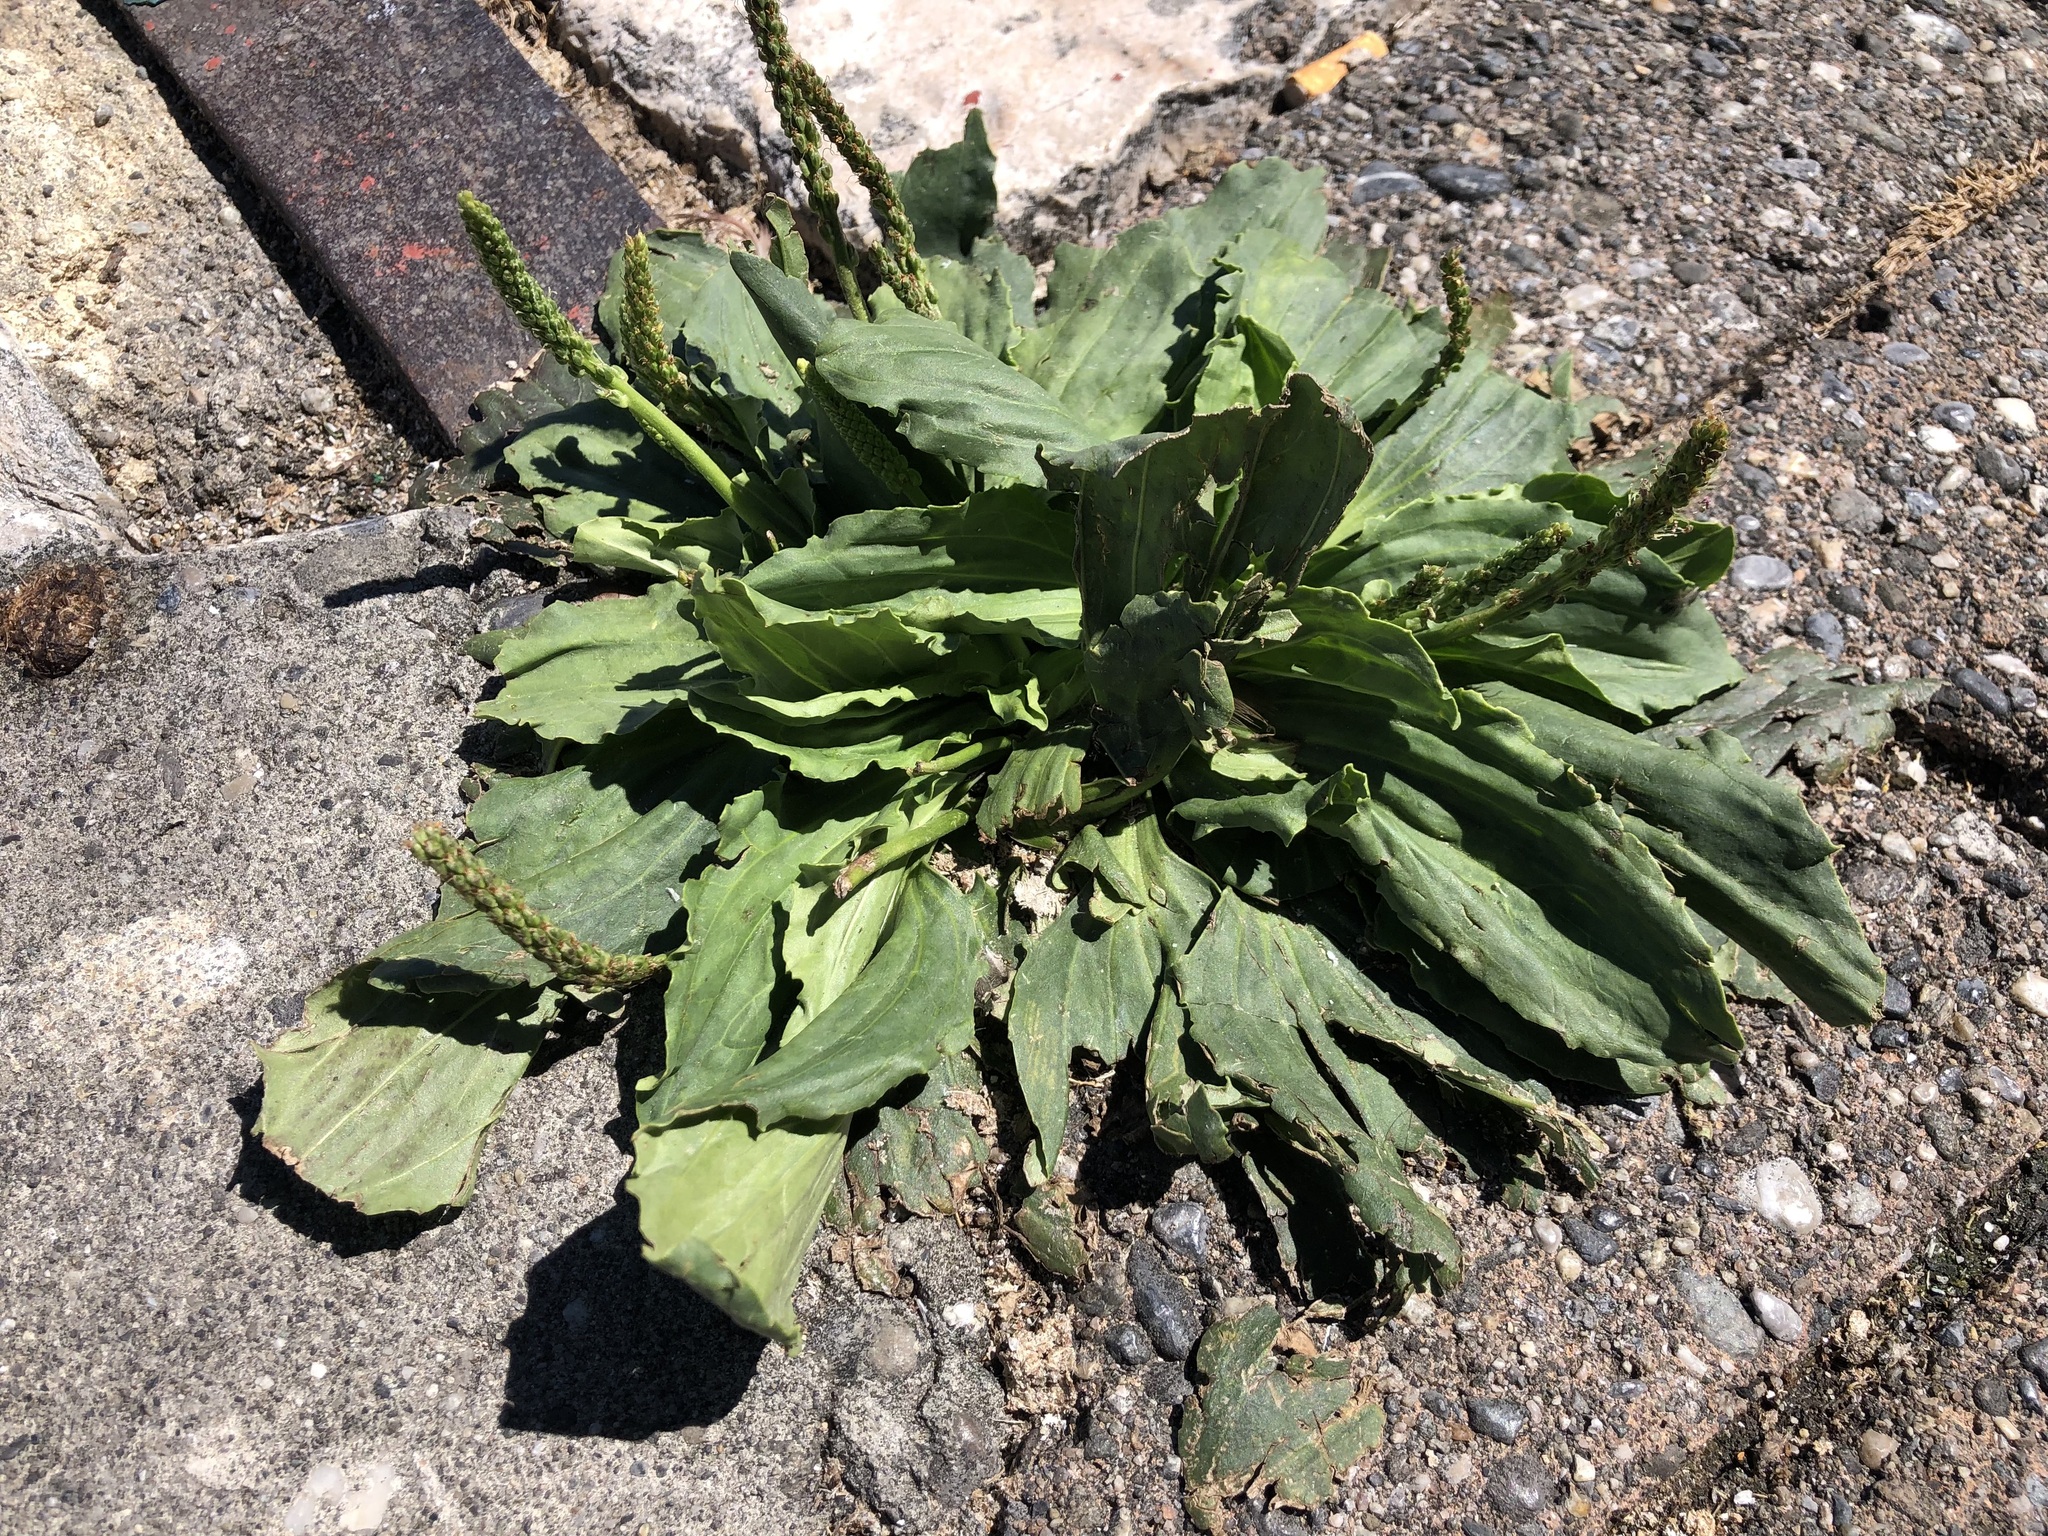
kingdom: Plantae
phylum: Tracheophyta
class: Magnoliopsida
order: Lamiales
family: Plantaginaceae
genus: Plantago
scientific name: Plantago major
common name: Common plantain
